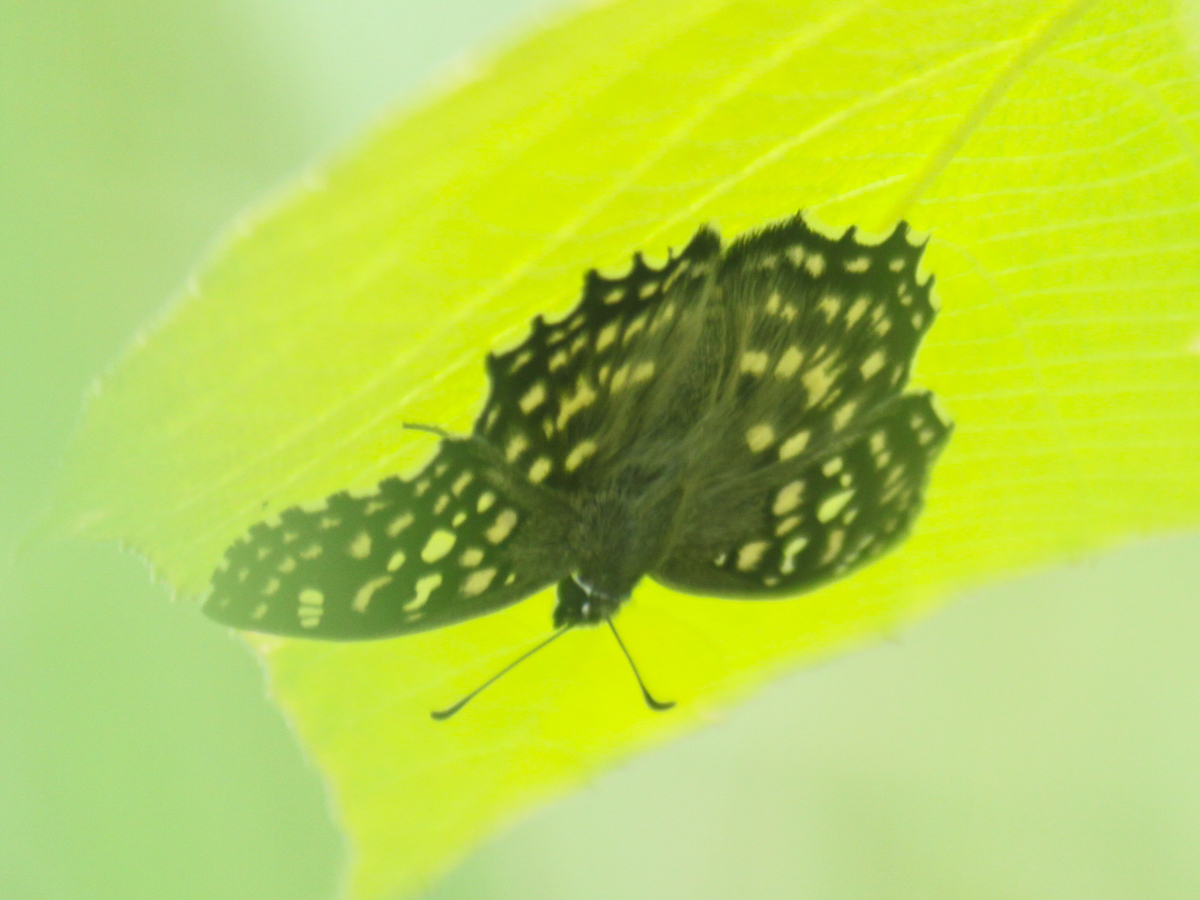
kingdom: Animalia
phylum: Arthropoda
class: Insecta
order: Lepidoptera
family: Hesperiidae
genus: Caprona
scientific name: Caprona agama
